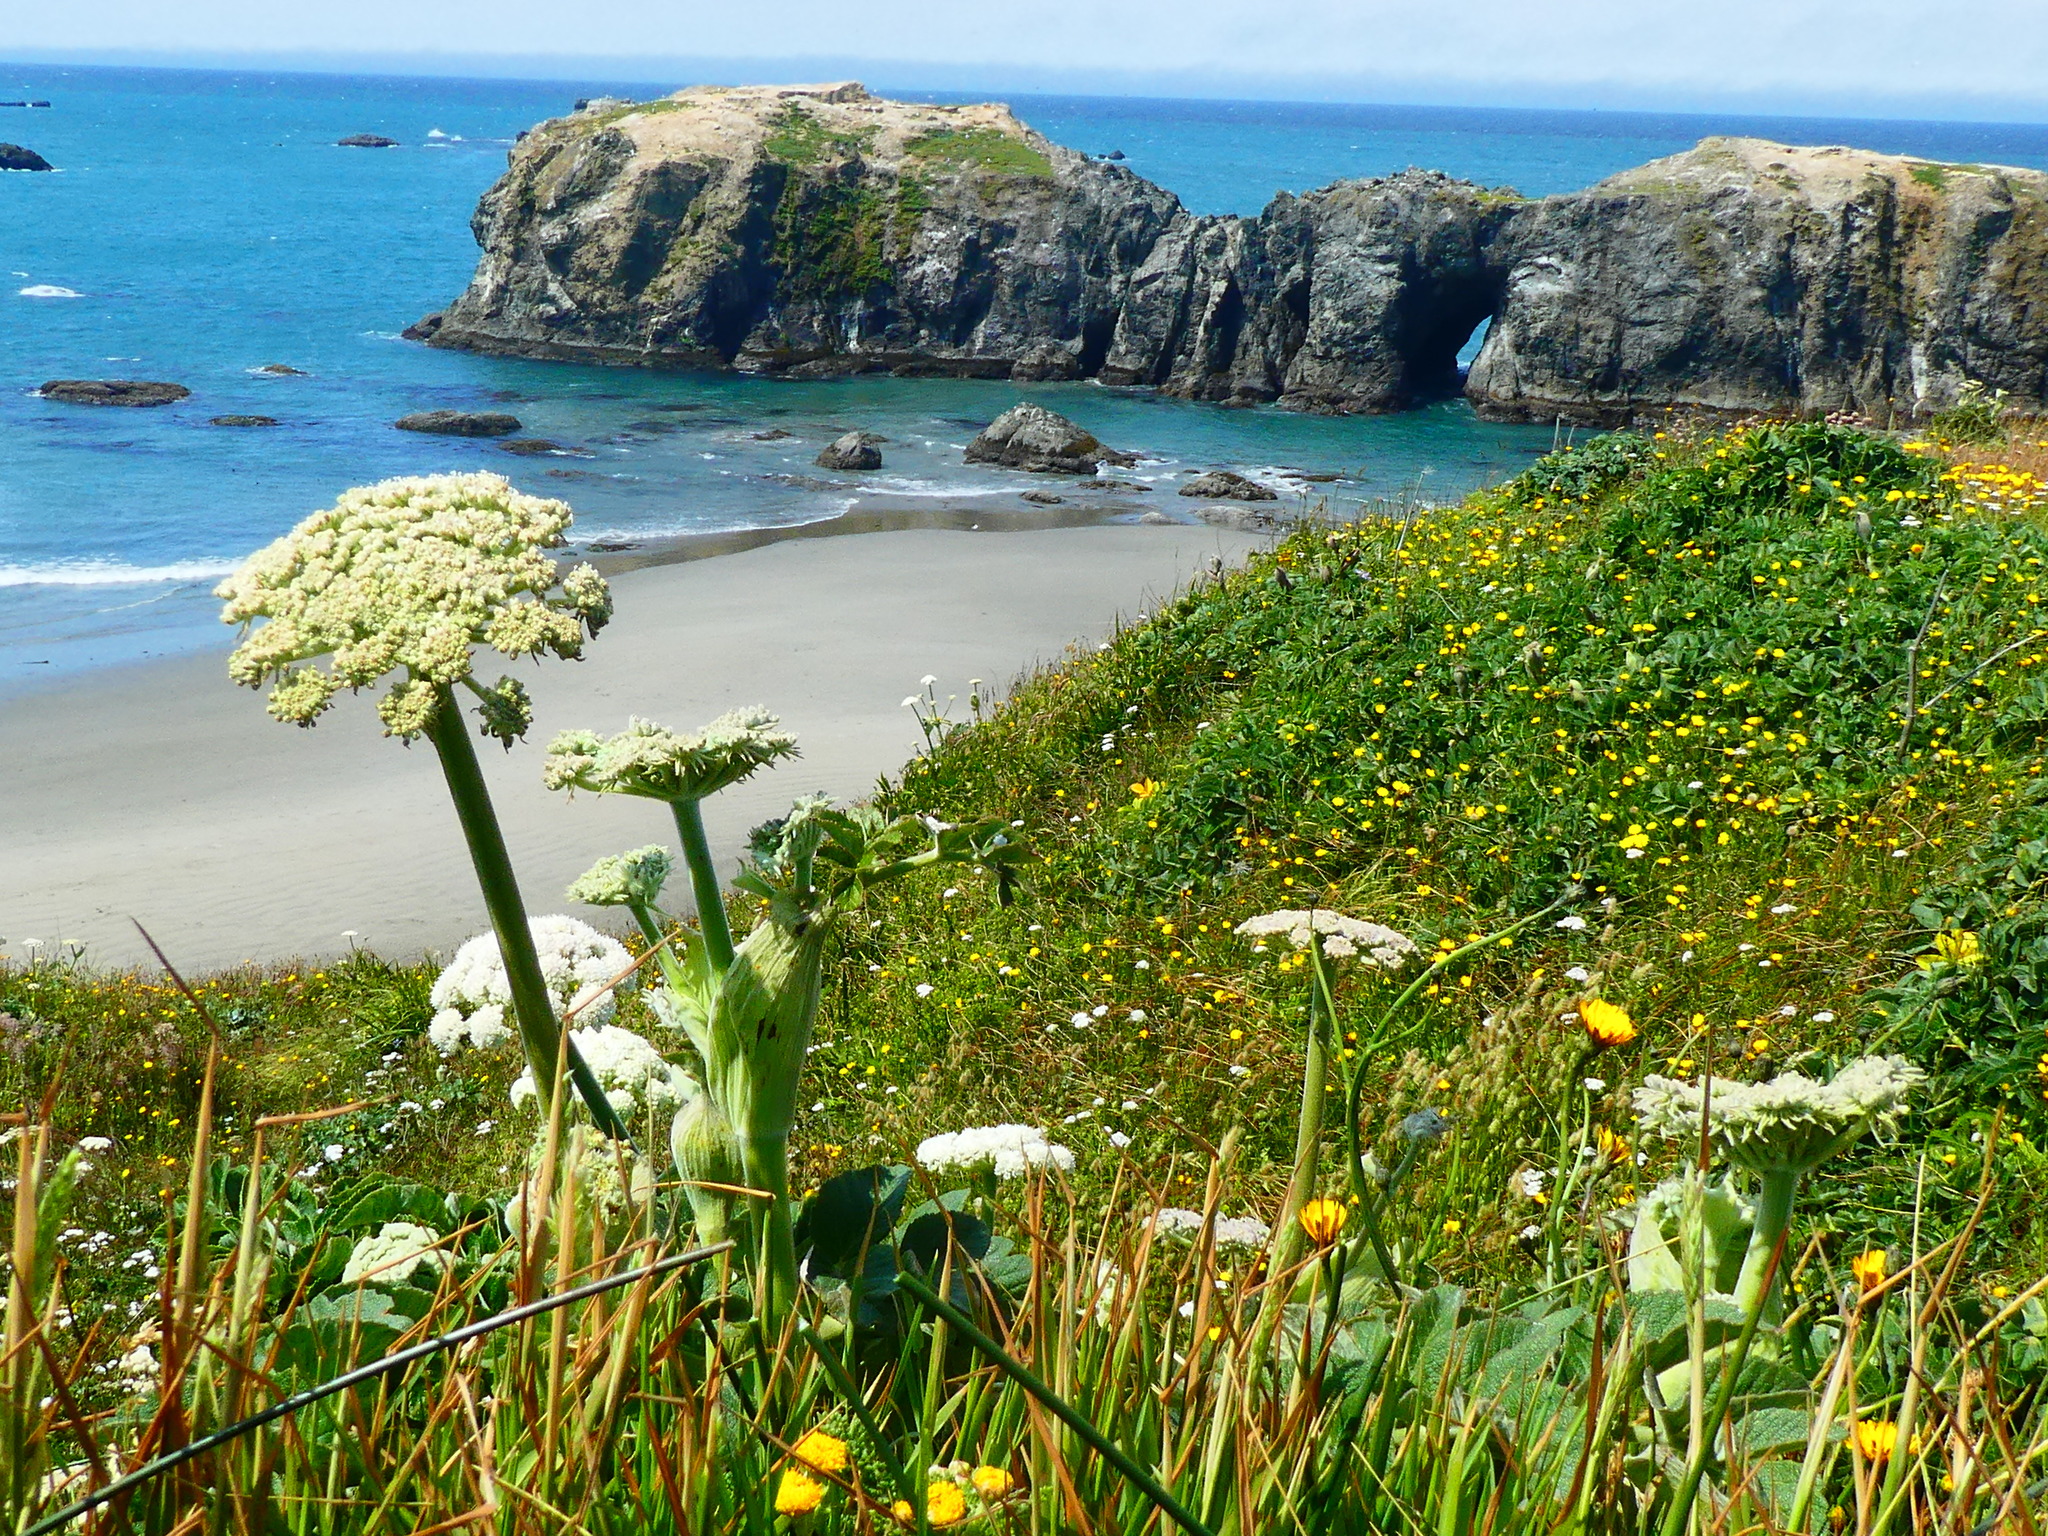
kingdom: Plantae
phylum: Tracheophyta
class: Magnoliopsida
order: Apiales
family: Apiaceae
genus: Angelica
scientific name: Angelica hendersonii
